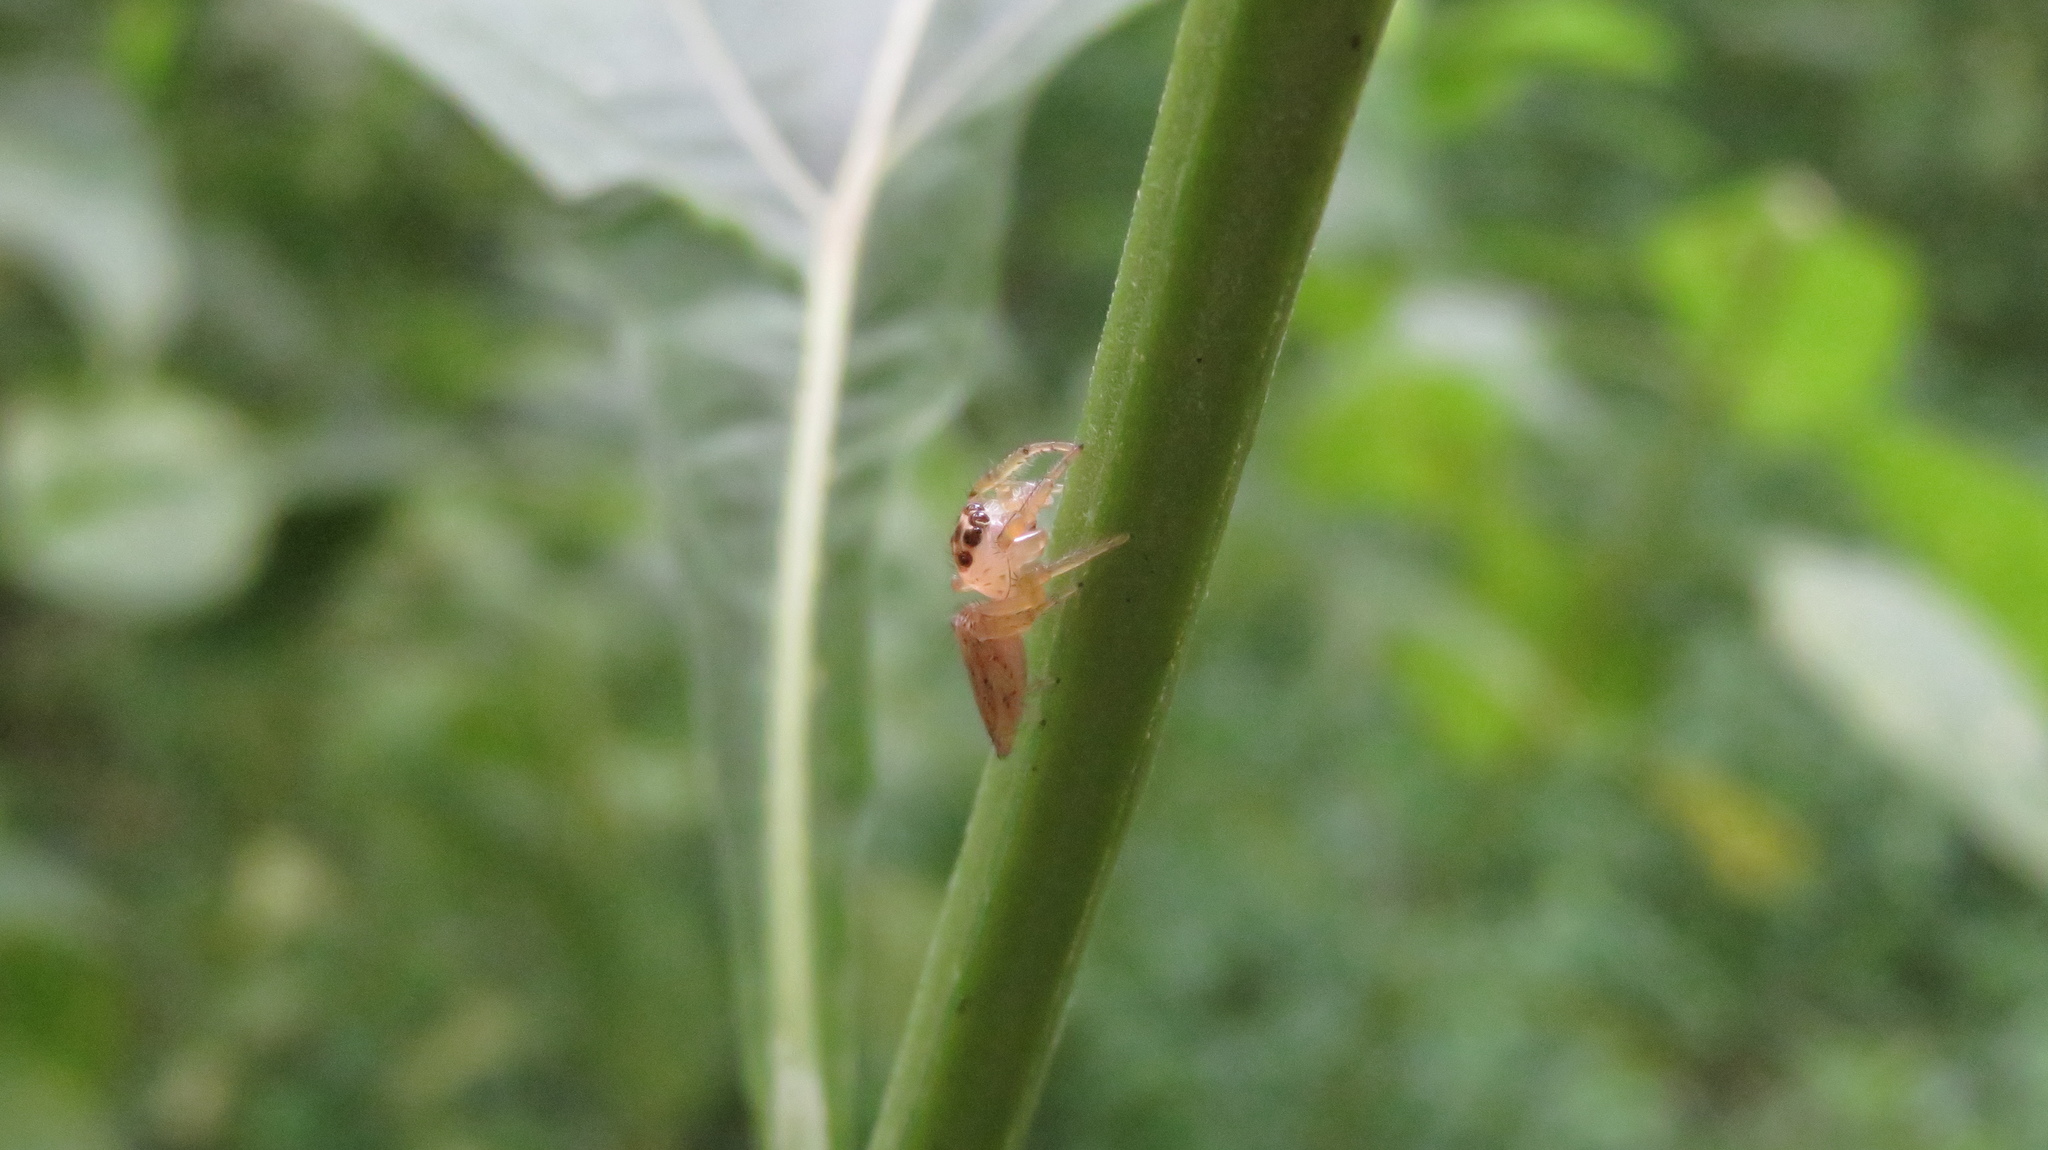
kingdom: Animalia
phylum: Arthropoda
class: Arachnida
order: Araneae
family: Salticidae
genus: Colonus
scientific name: Colonus sylvanus
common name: Jumping spiders
